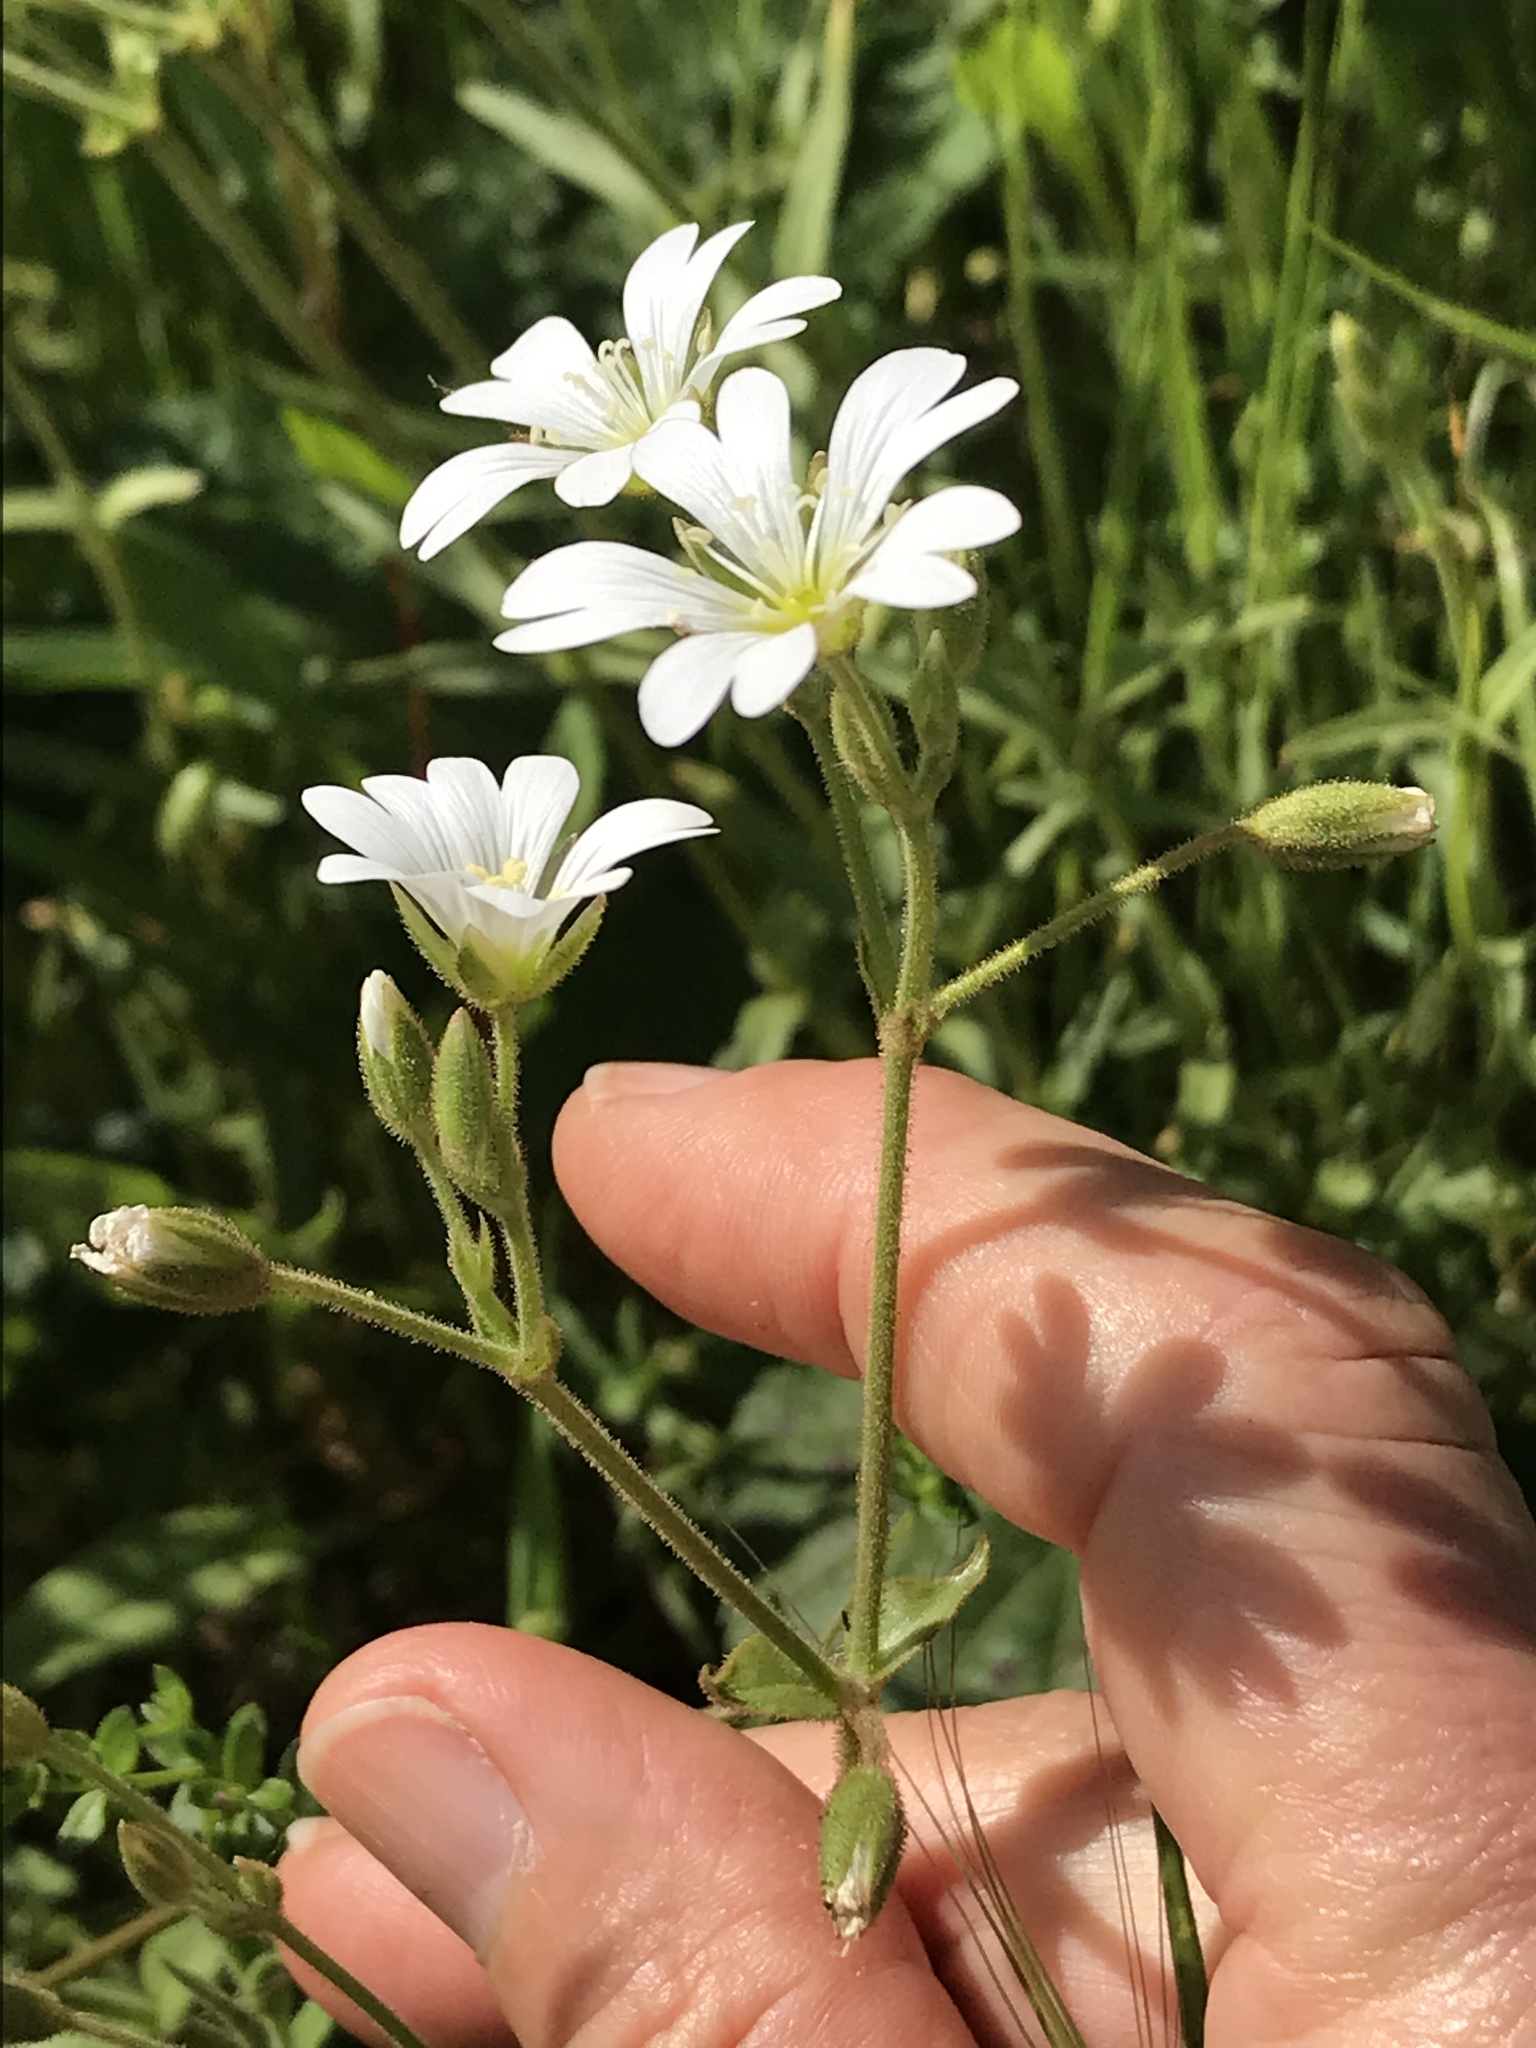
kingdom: Plantae
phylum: Tracheophyta
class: Magnoliopsida
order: Caryophyllales
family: Caryophyllaceae
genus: Cerastium
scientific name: Cerastium arvense
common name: Field mouse-ear
